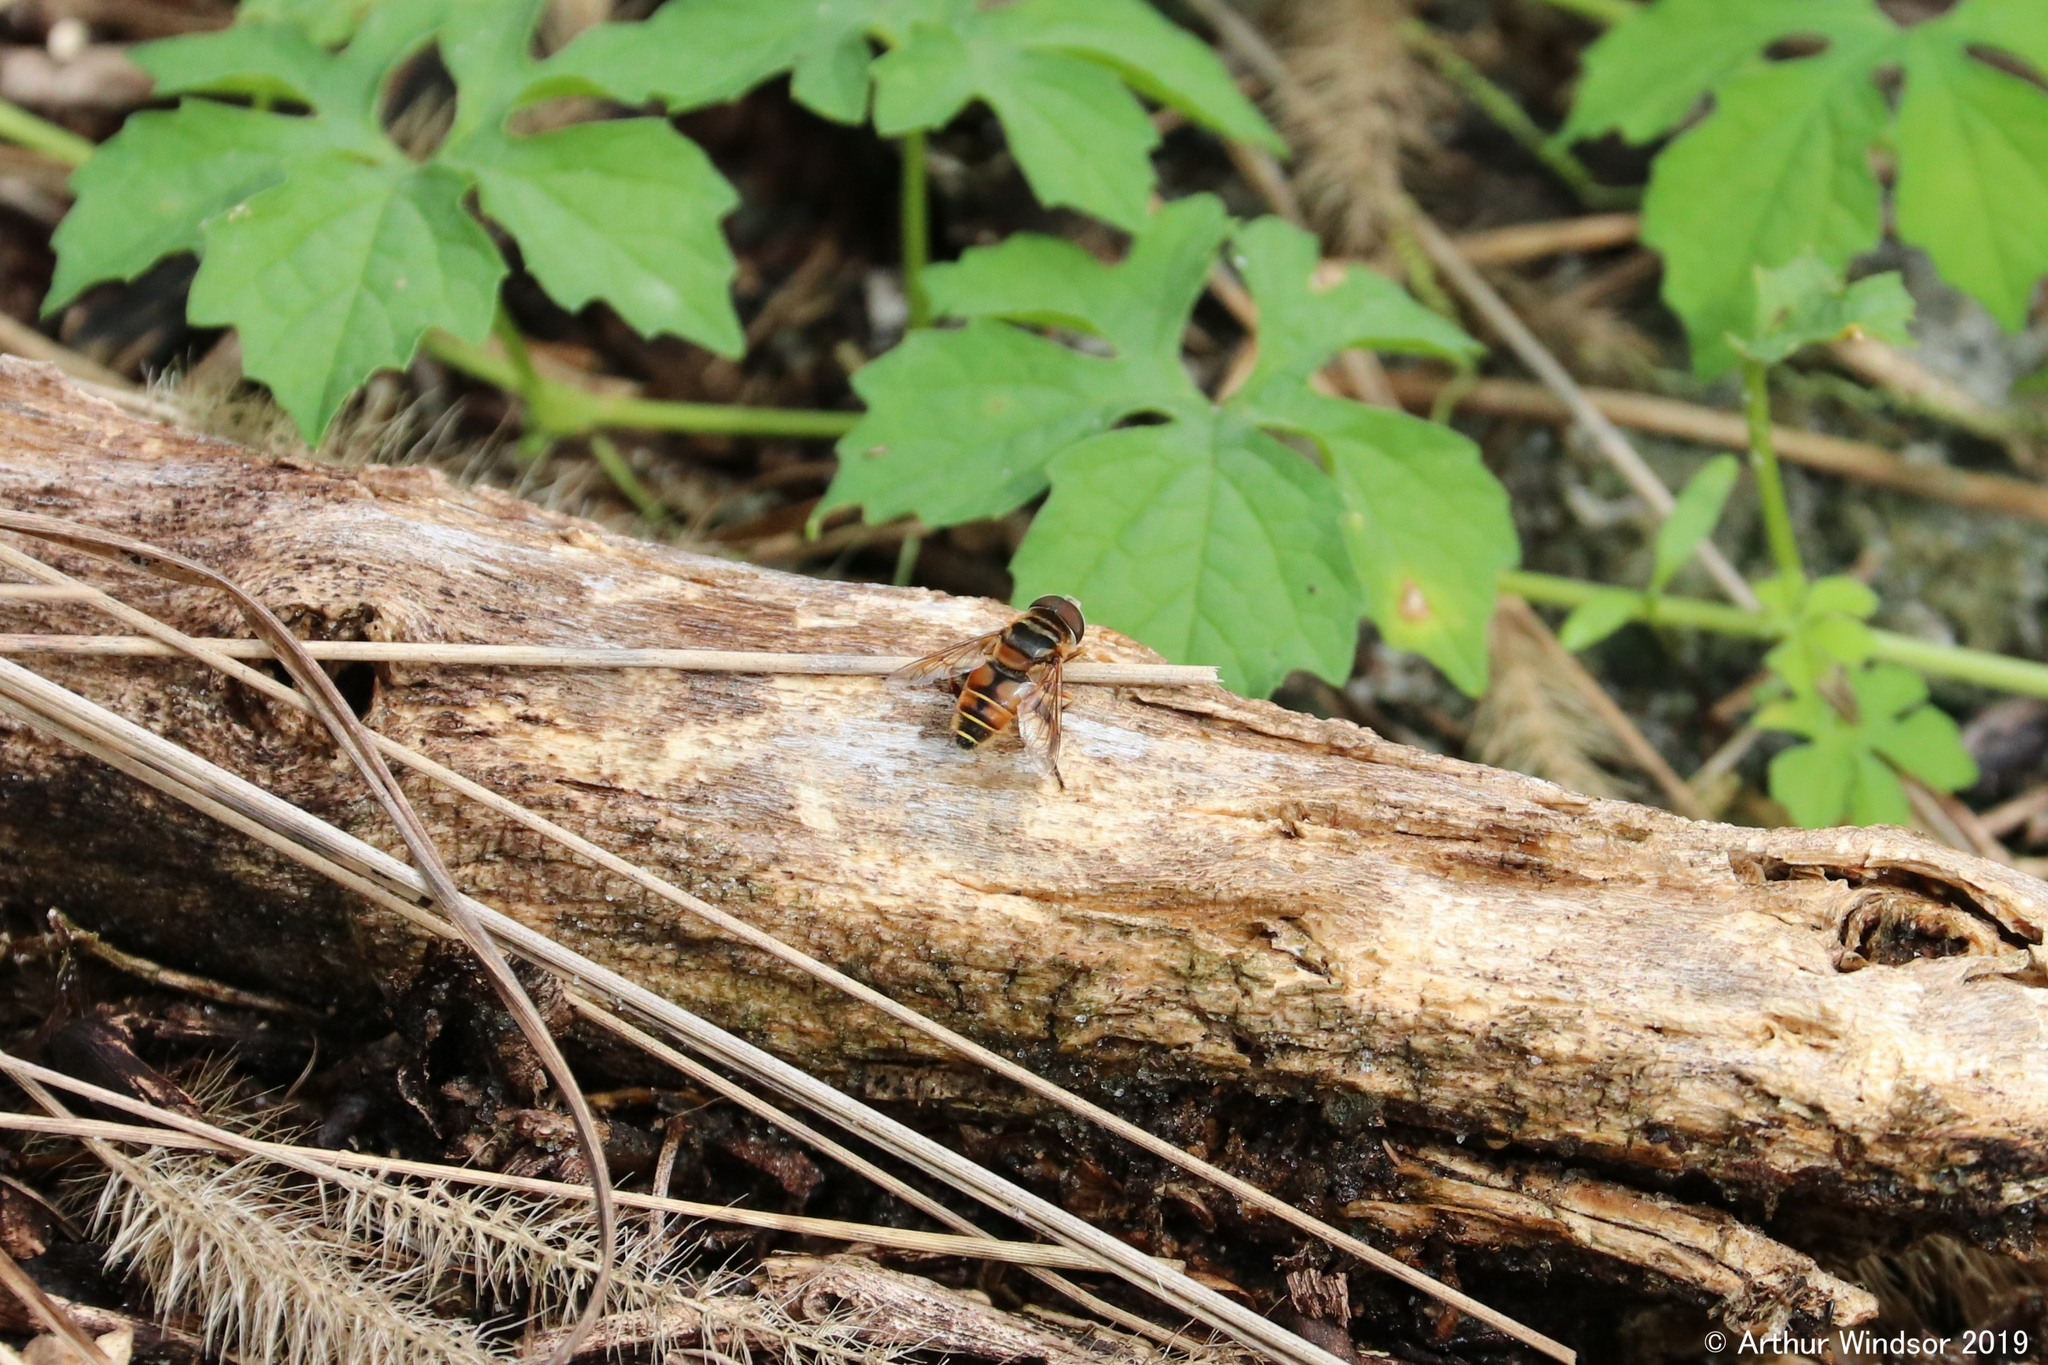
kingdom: Animalia
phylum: Arthropoda
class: Insecta
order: Diptera
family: Syrphidae
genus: Palpada
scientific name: Palpada vinetorum
